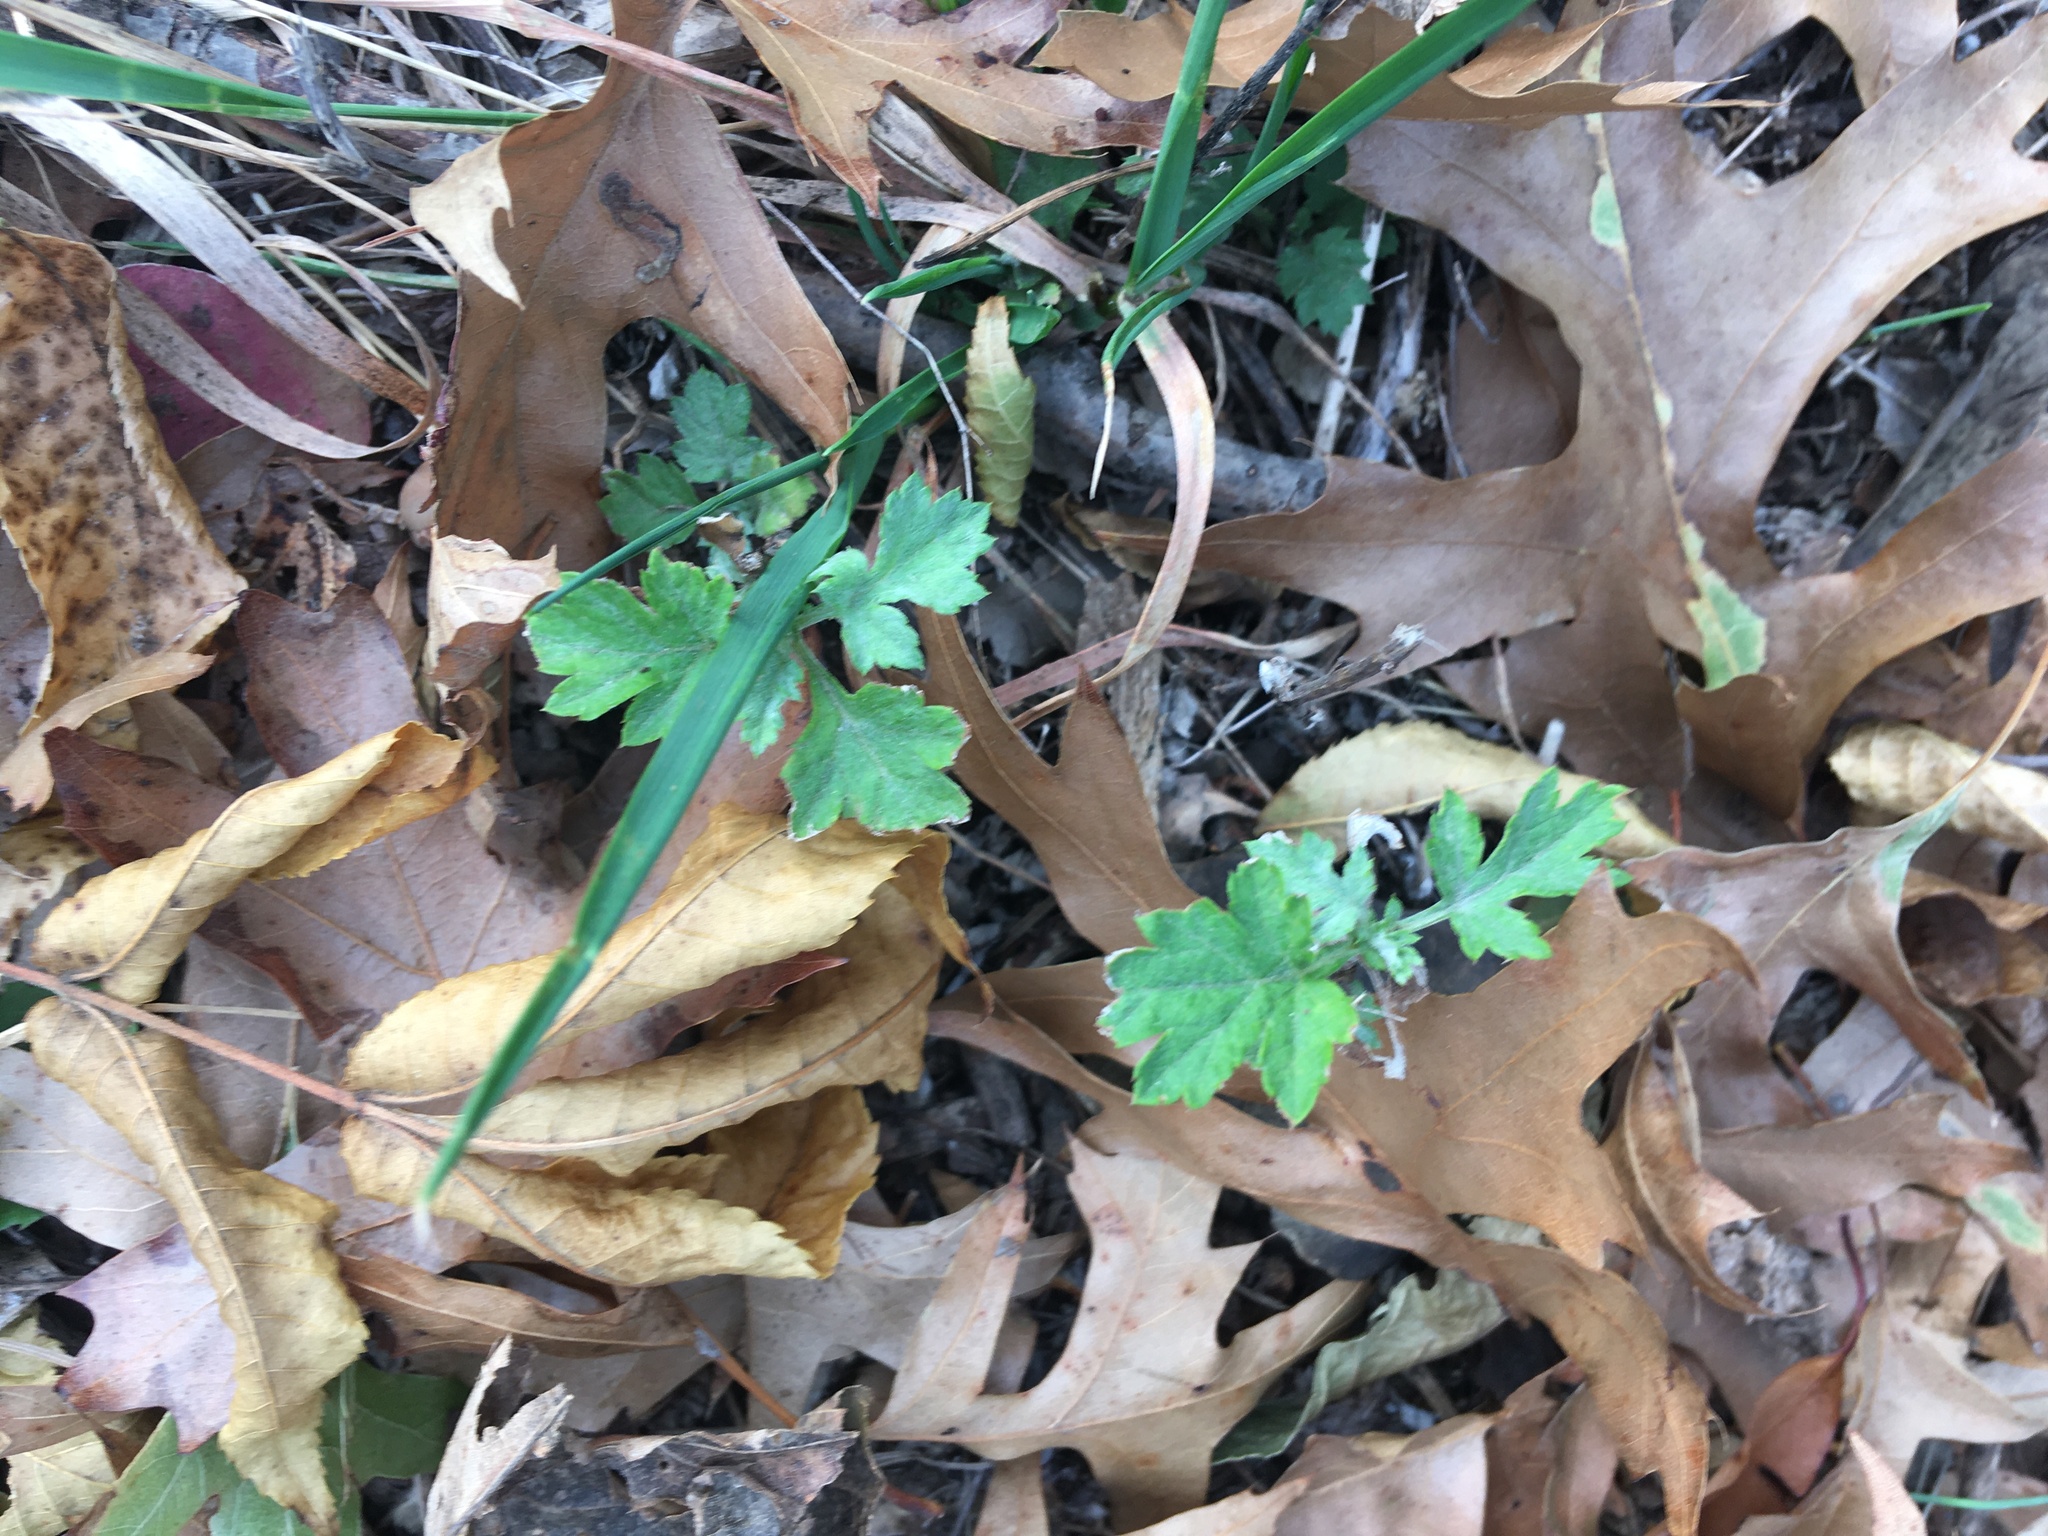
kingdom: Plantae
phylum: Tracheophyta
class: Magnoliopsida
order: Asterales
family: Asteraceae
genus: Artemisia
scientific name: Artemisia vulgaris
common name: Mugwort
